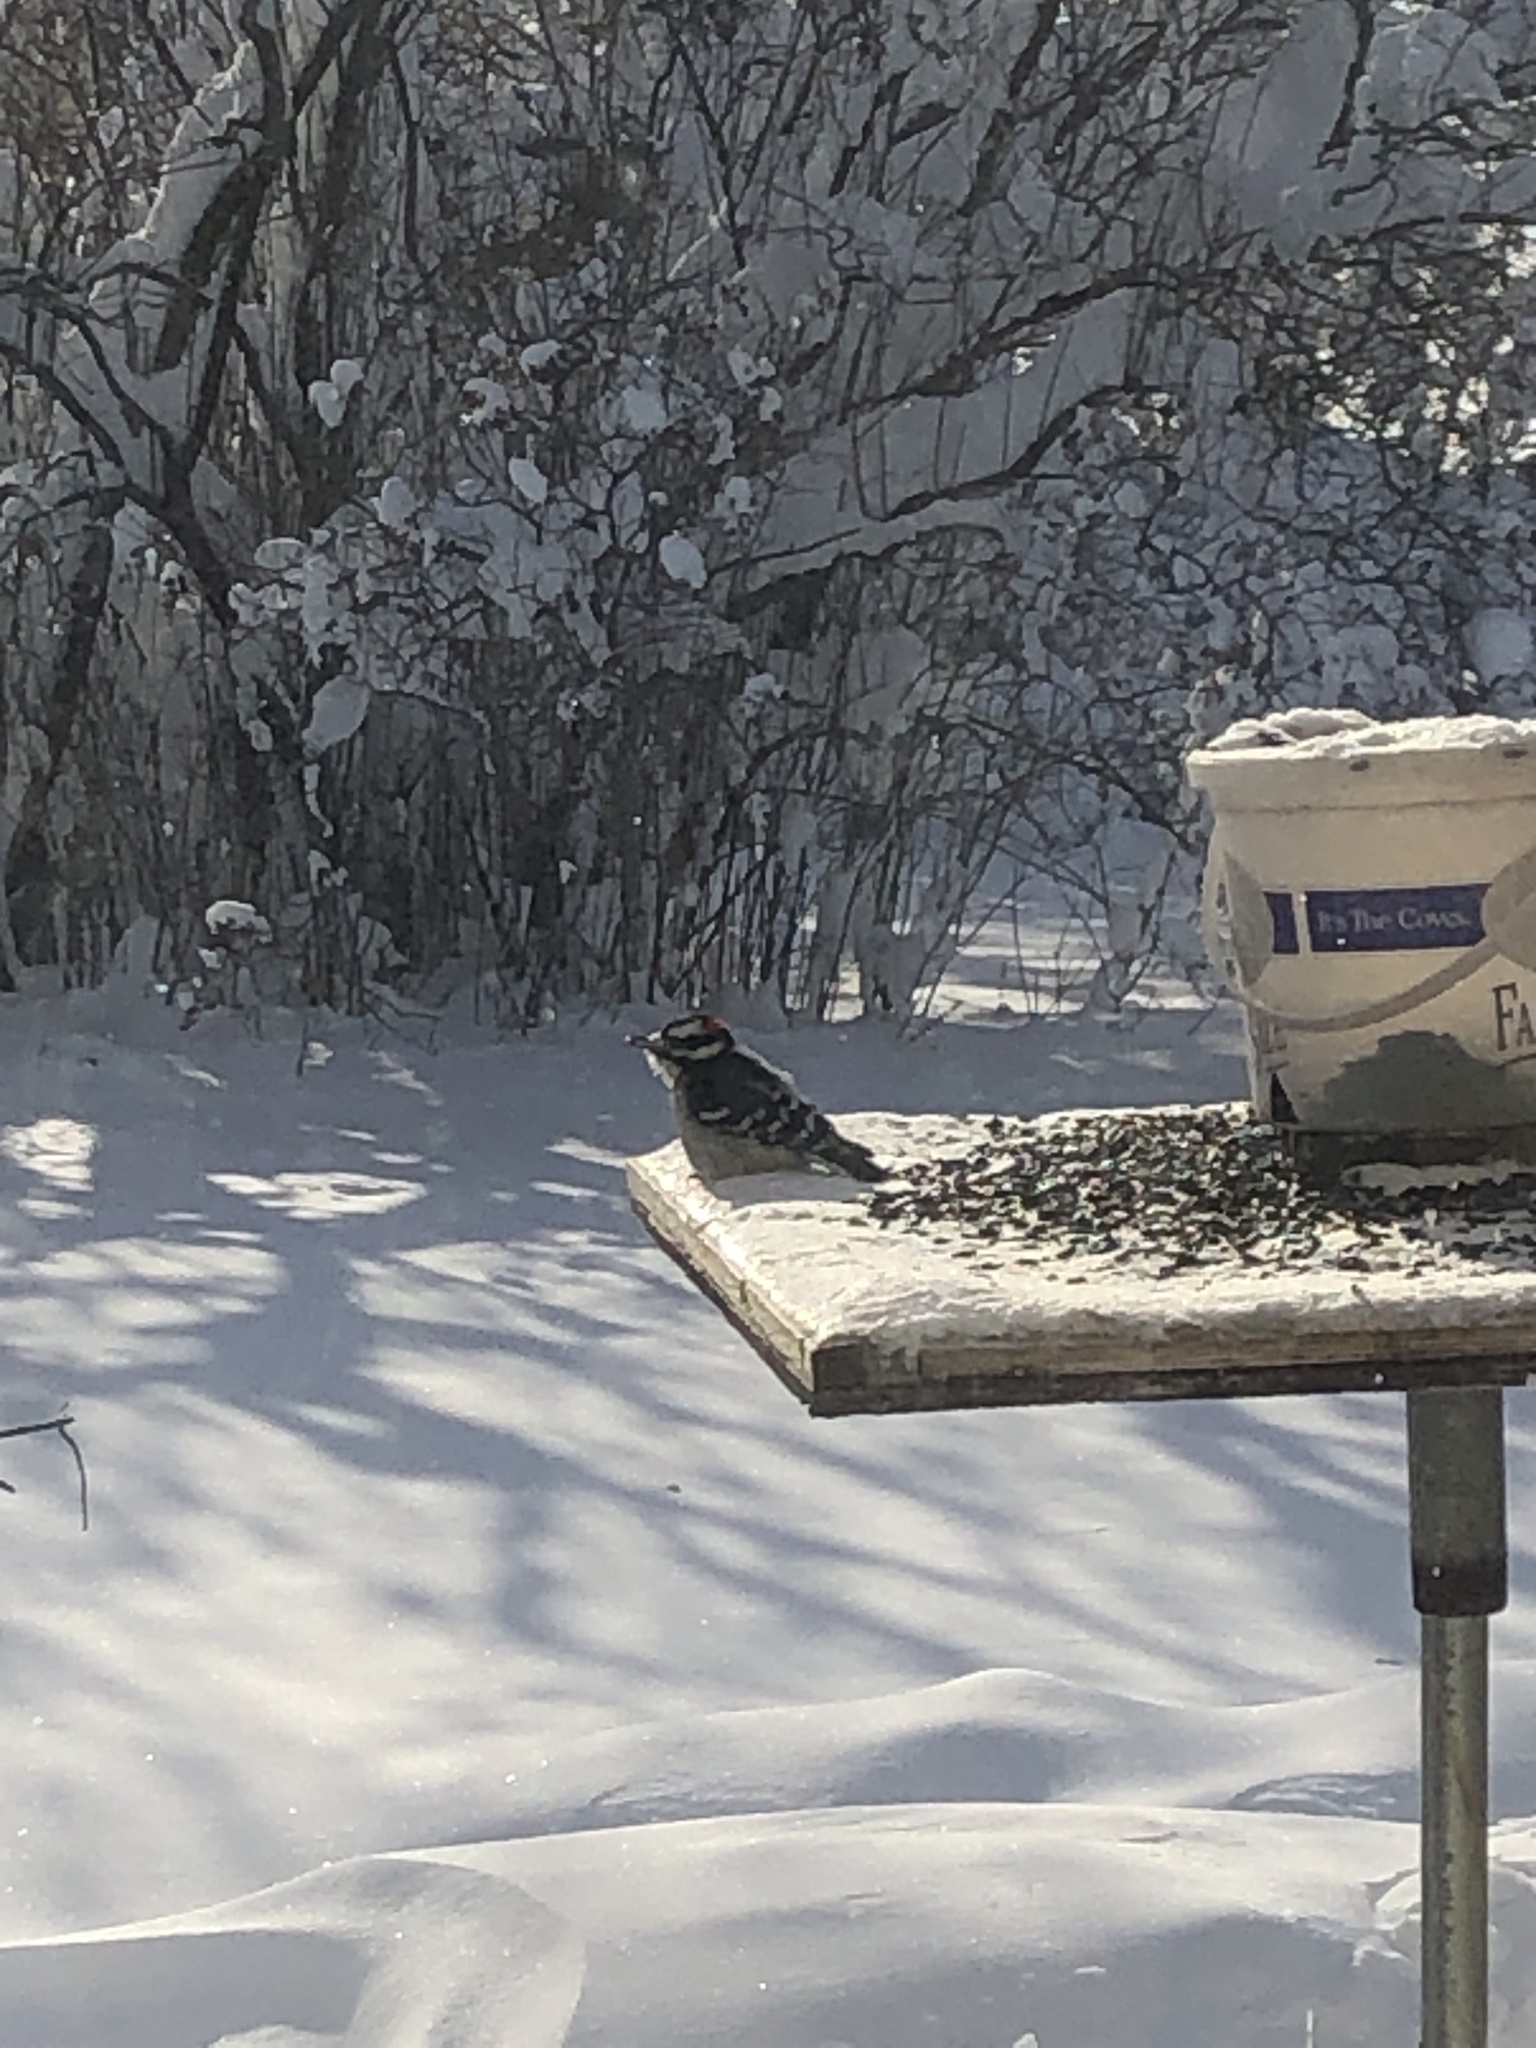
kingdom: Animalia
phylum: Chordata
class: Aves
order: Piciformes
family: Picidae
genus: Dryobates
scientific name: Dryobates pubescens
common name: Downy woodpecker
